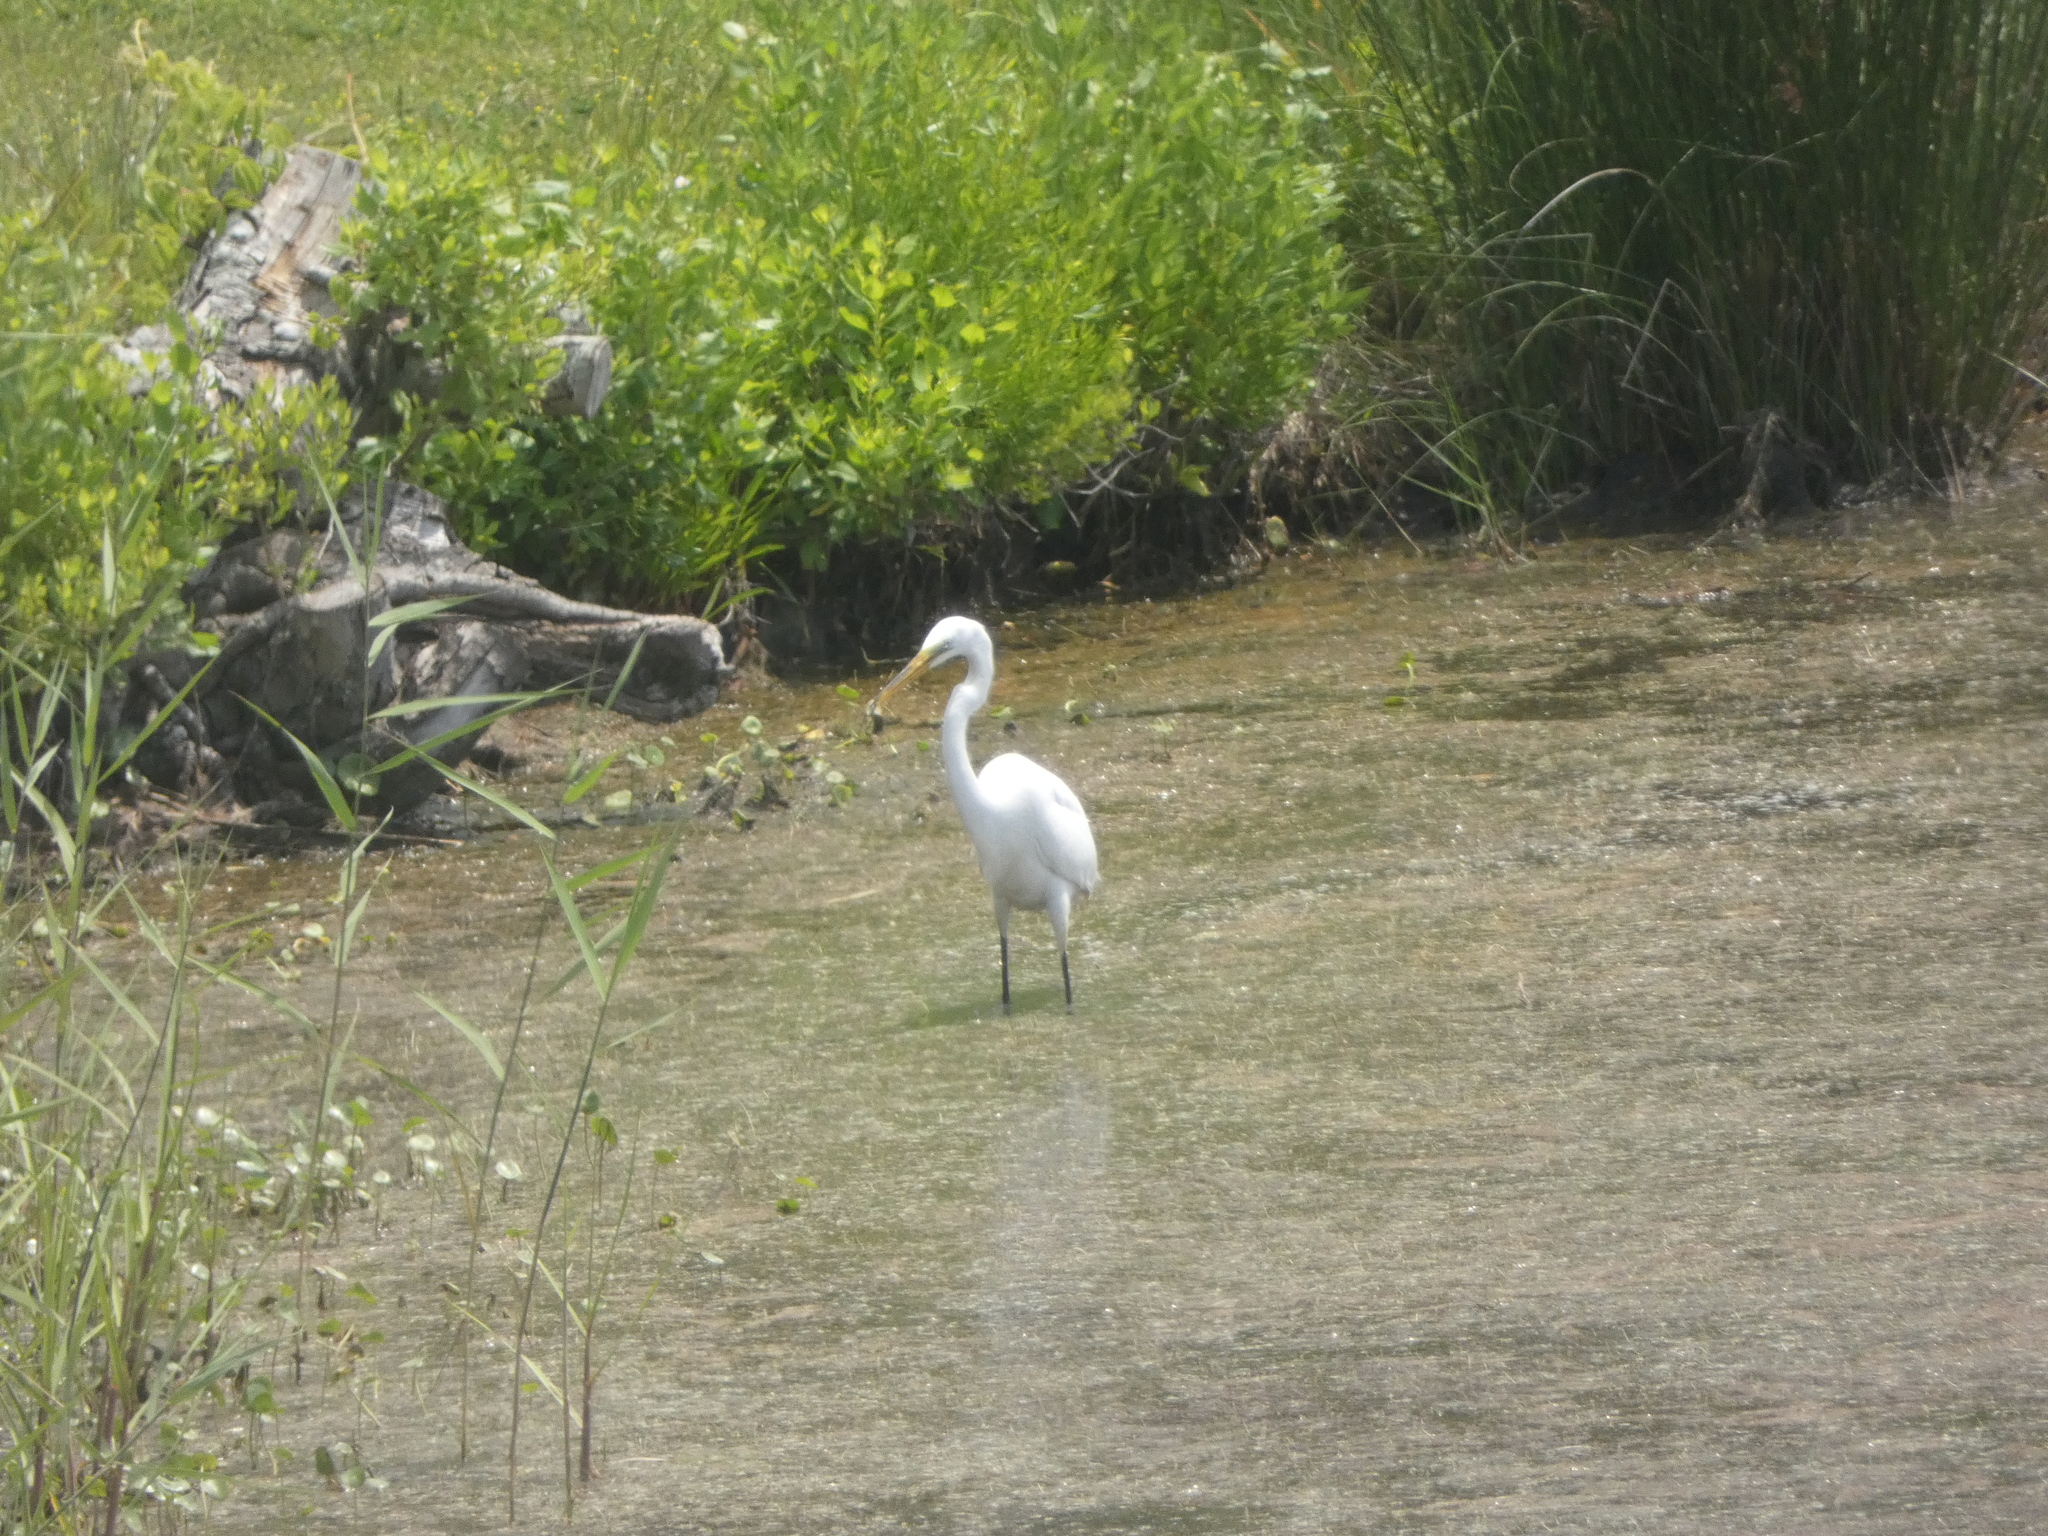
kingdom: Animalia
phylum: Chordata
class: Aves
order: Pelecaniformes
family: Ardeidae
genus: Ardea
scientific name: Ardea alba
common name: Great egret
